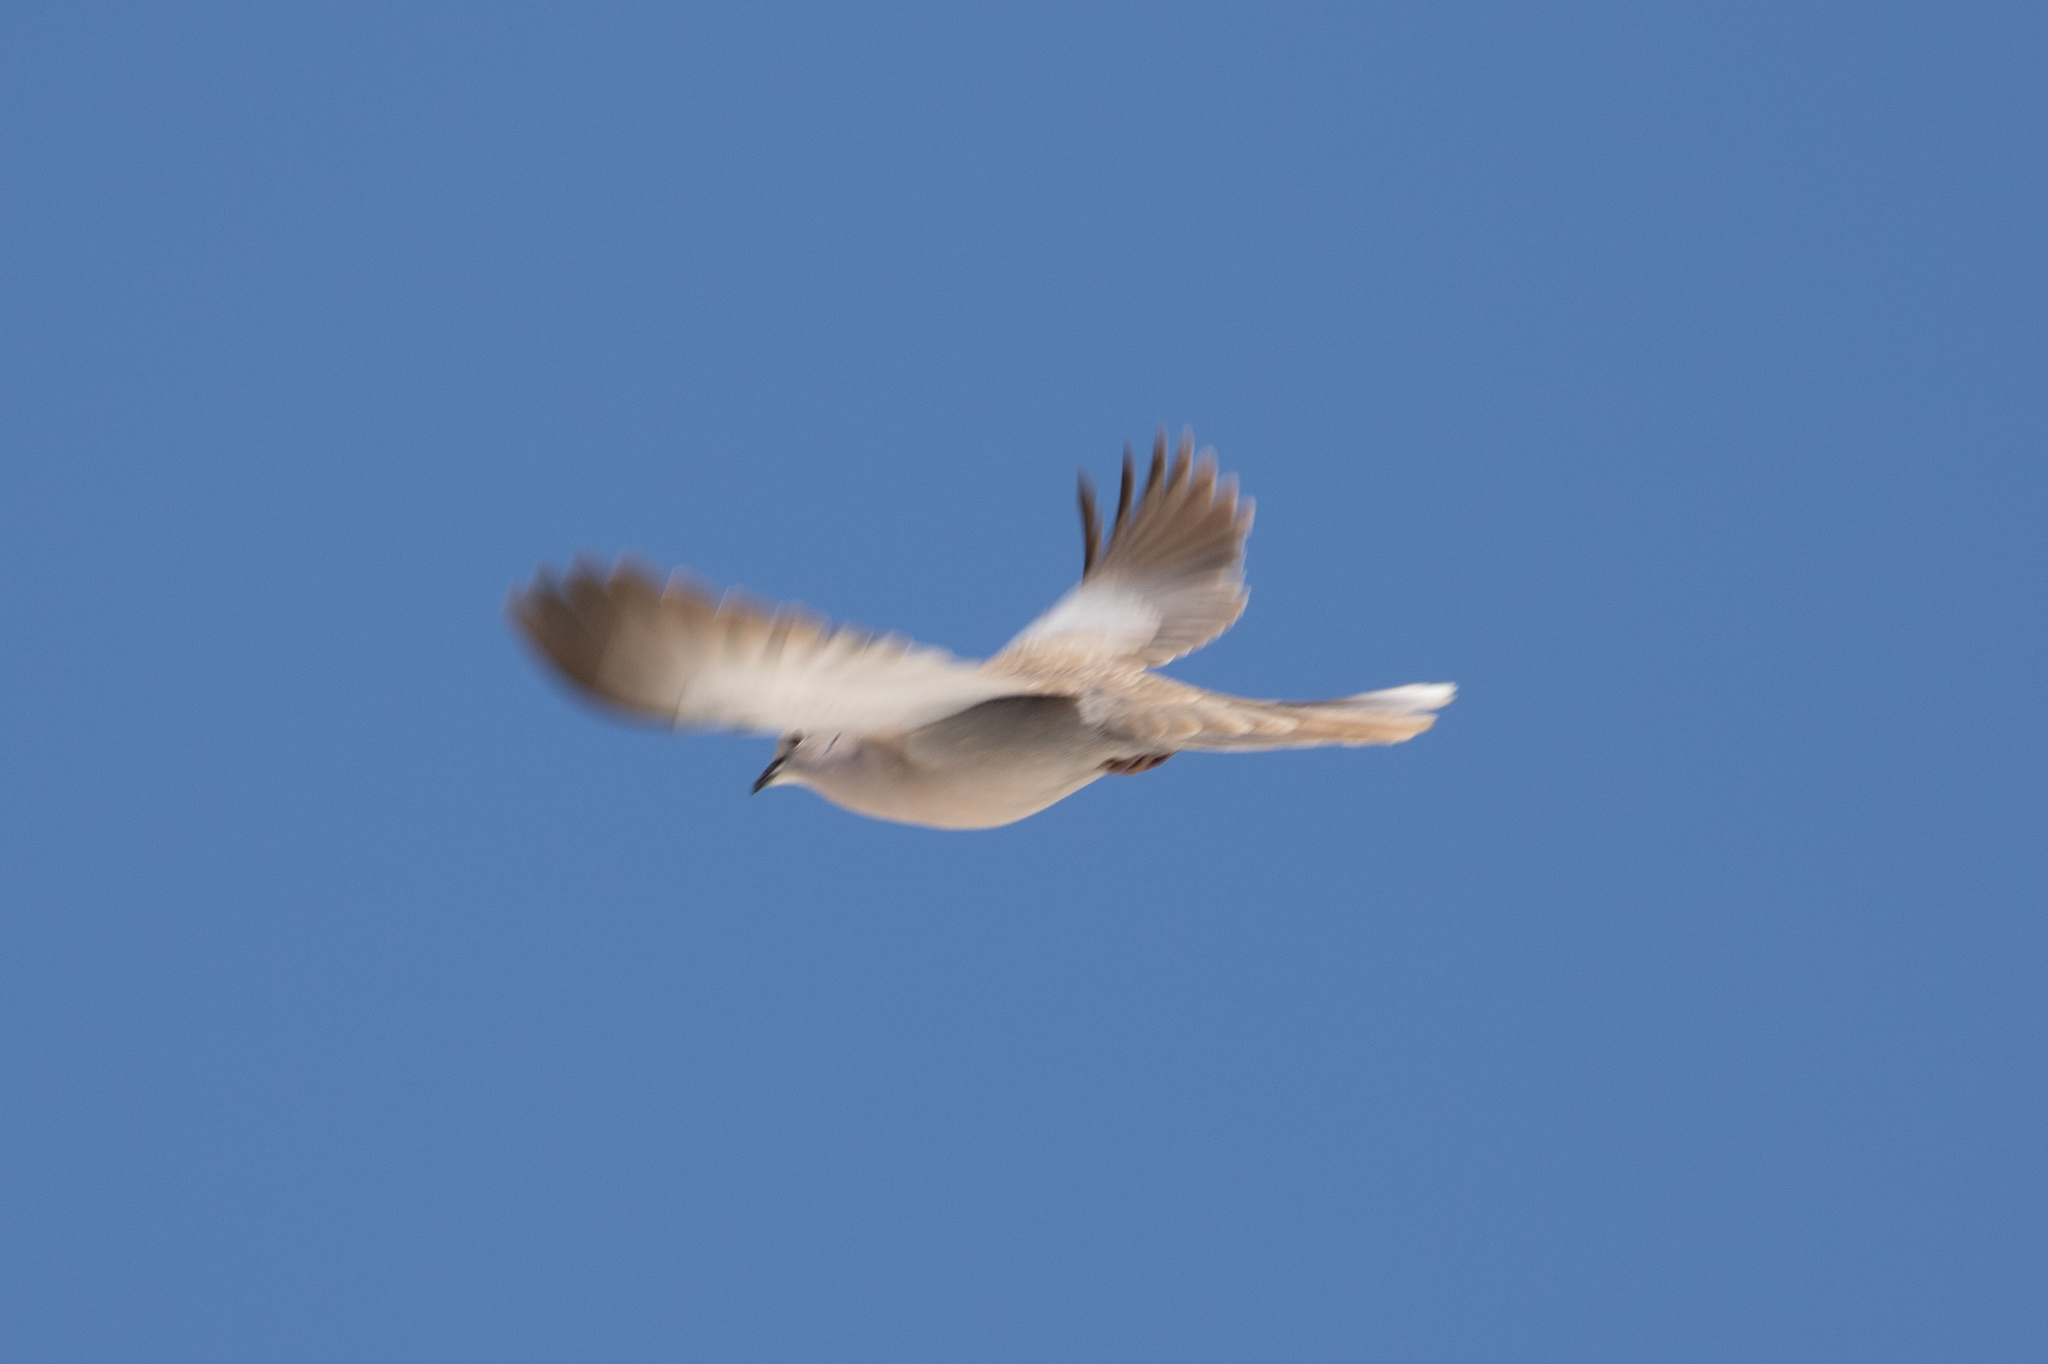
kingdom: Animalia
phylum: Chordata
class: Aves
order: Columbiformes
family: Columbidae
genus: Streptopelia
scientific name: Streptopelia decaocto
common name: Eurasian collared dove
